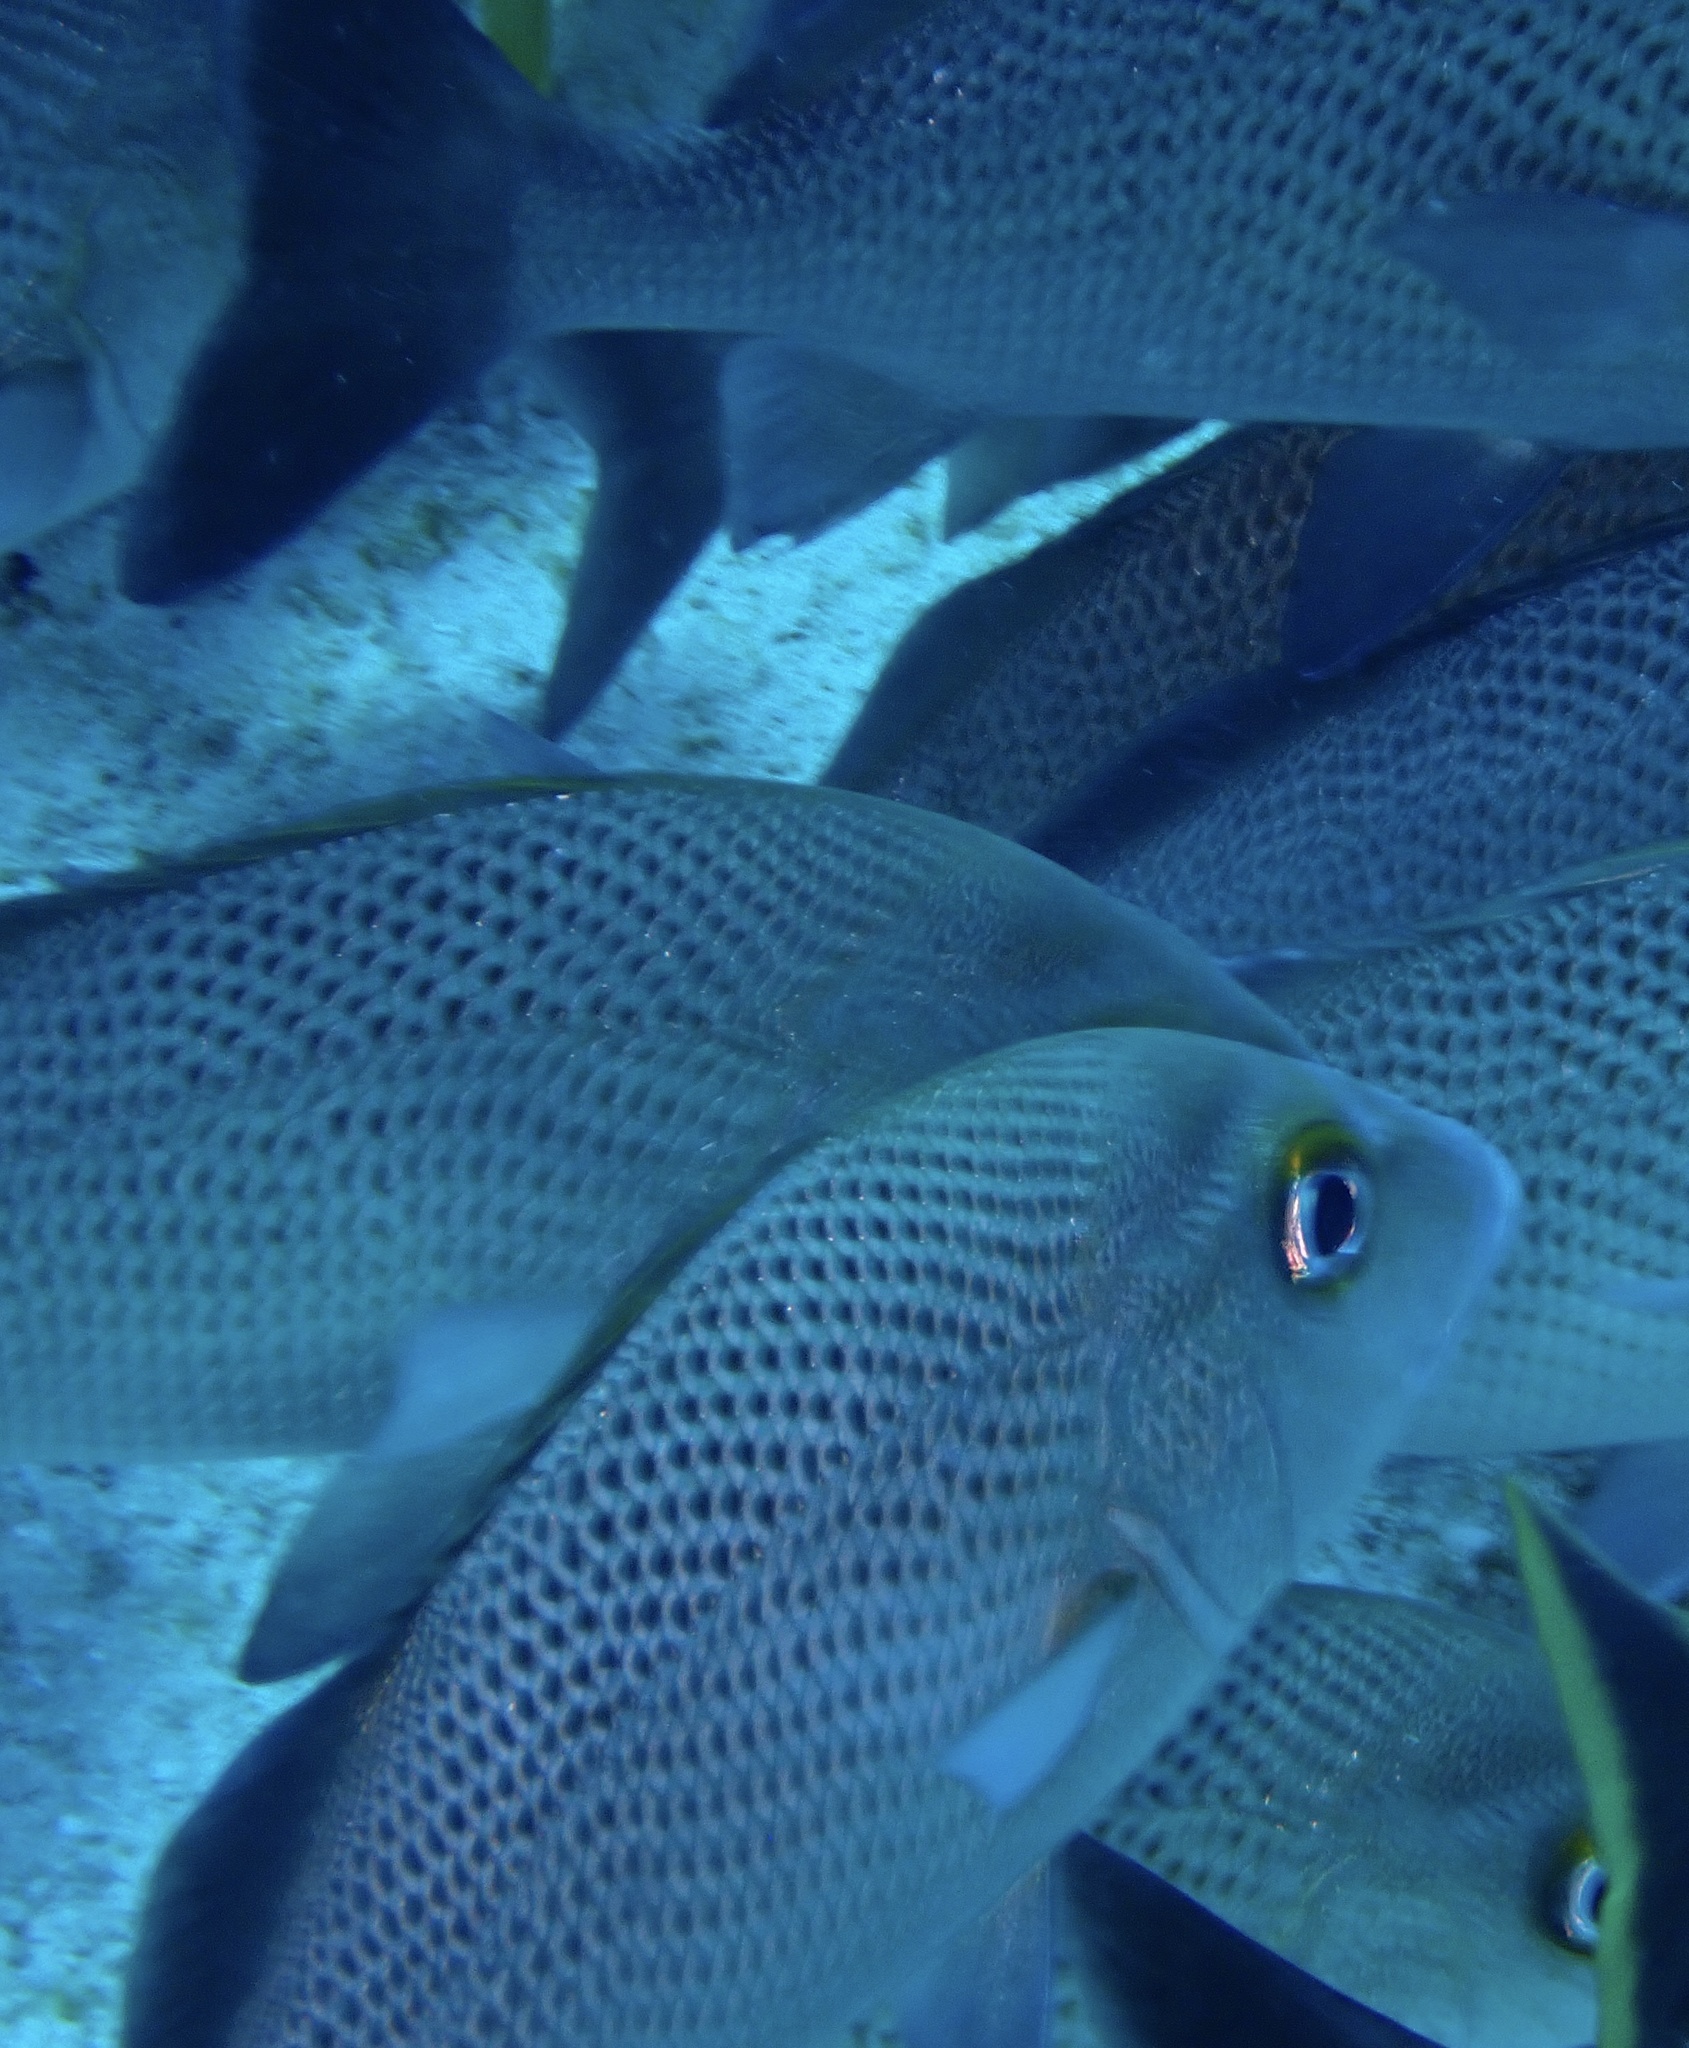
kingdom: Animalia
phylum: Chordata
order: Perciformes
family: Haemulidae
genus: Haemulon
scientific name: Haemulon parra
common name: Sailor's choice
